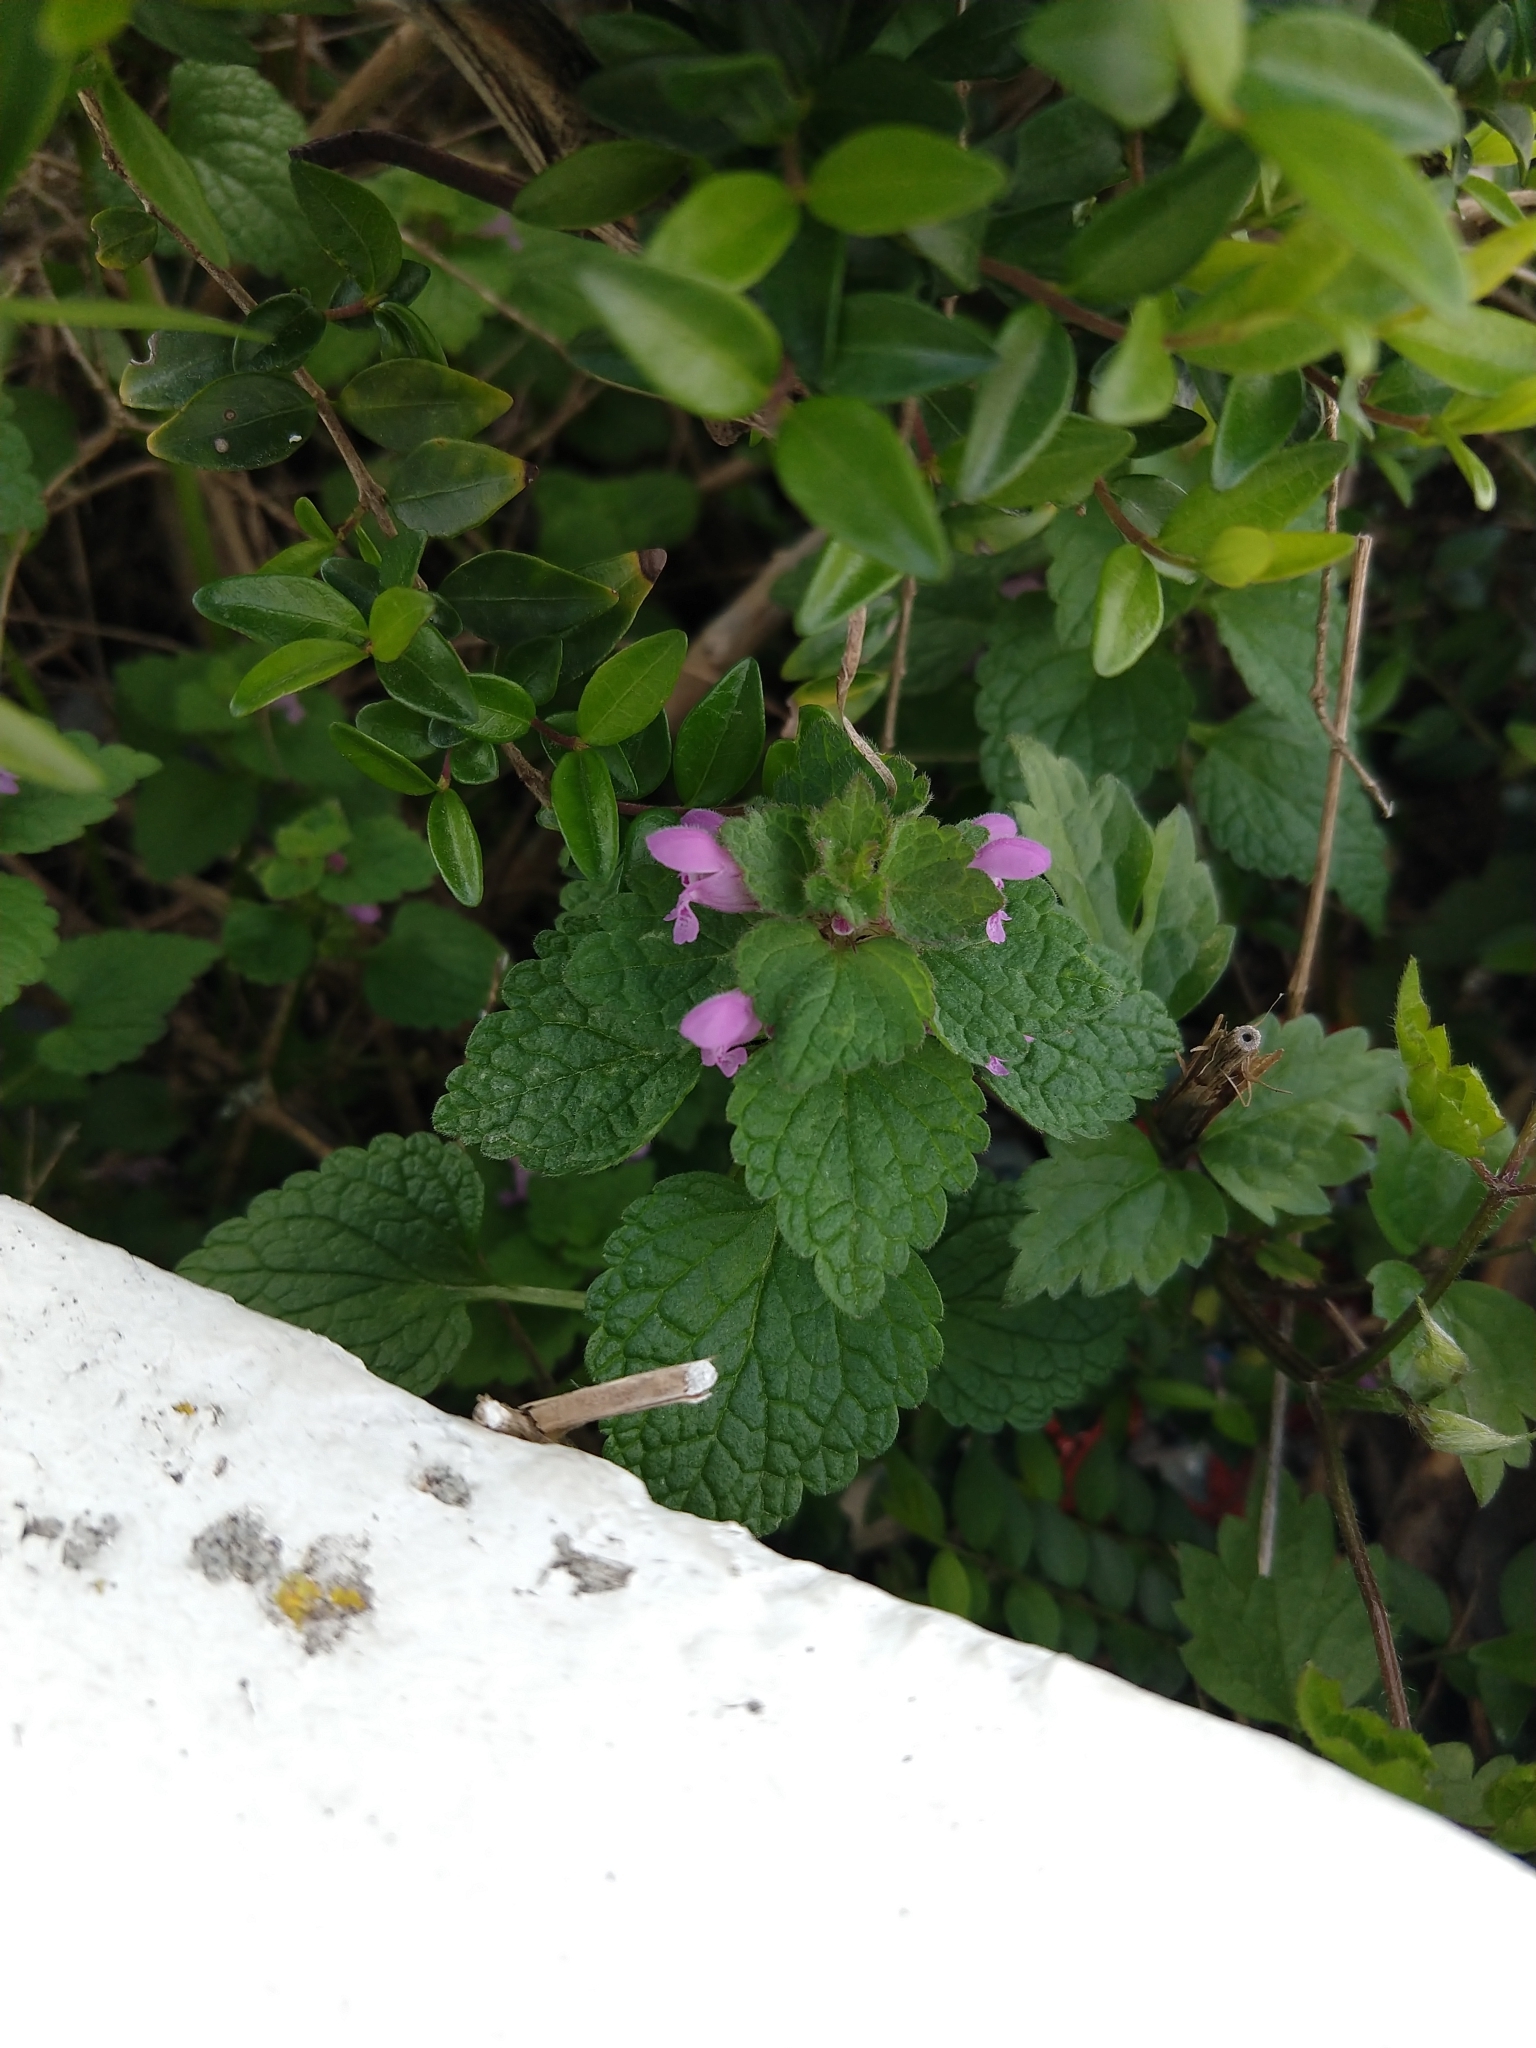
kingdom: Plantae
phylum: Tracheophyta
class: Magnoliopsida
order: Lamiales
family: Lamiaceae
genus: Lamium
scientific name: Lamium purpureum
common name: Red dead-nettle
